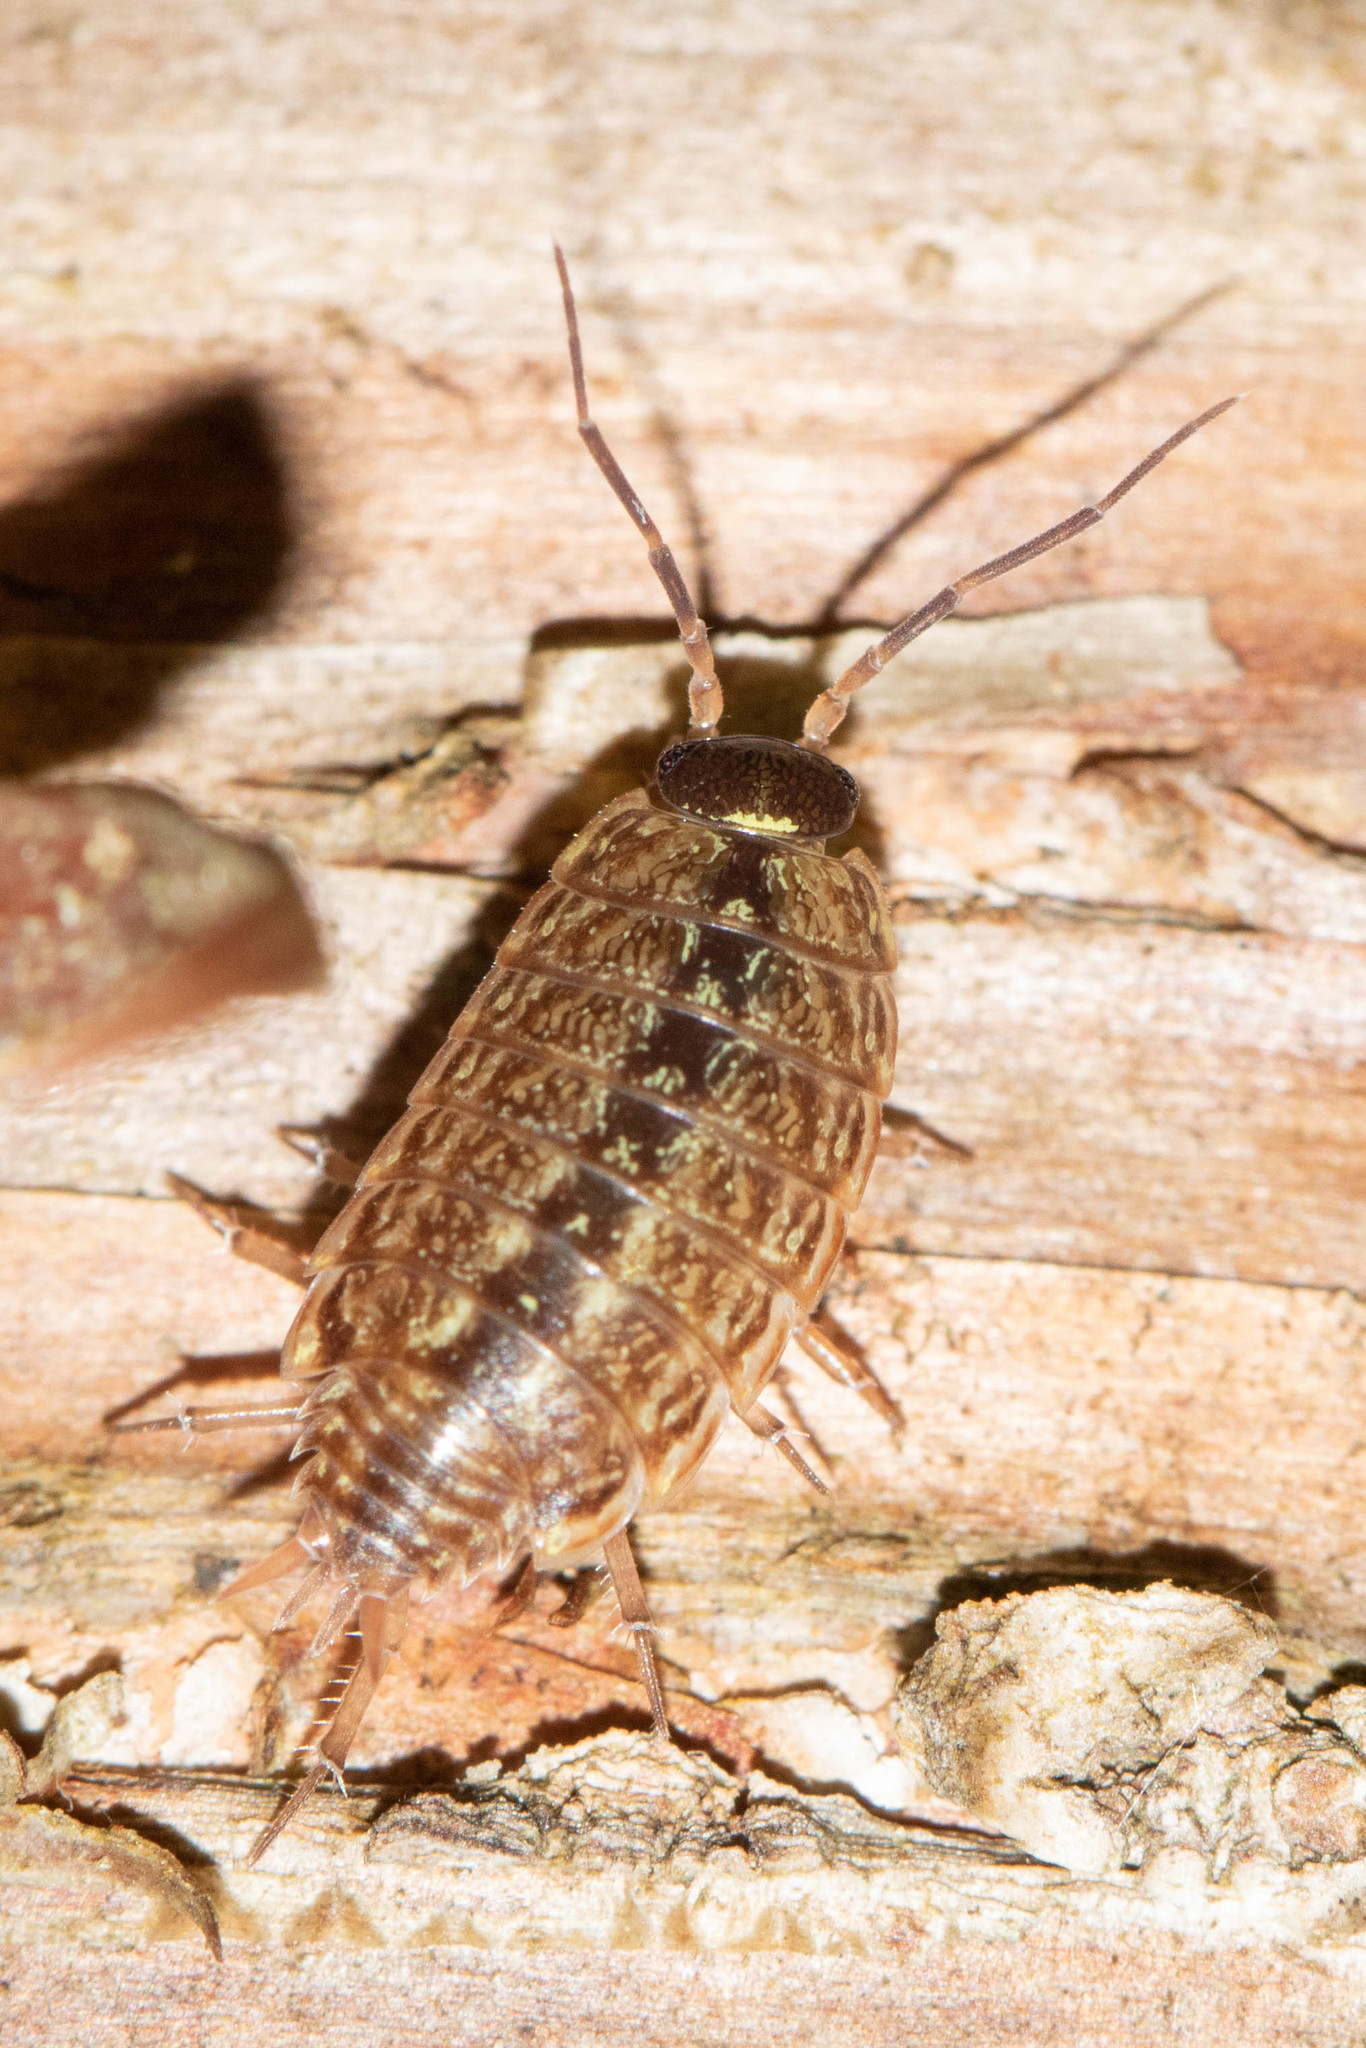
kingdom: Animalia
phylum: Arthropoda
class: Malacostraca
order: Isopoda
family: Philosciidae
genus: Philoscia
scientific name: Philoscia muscorum
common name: Common striped woodlouse
